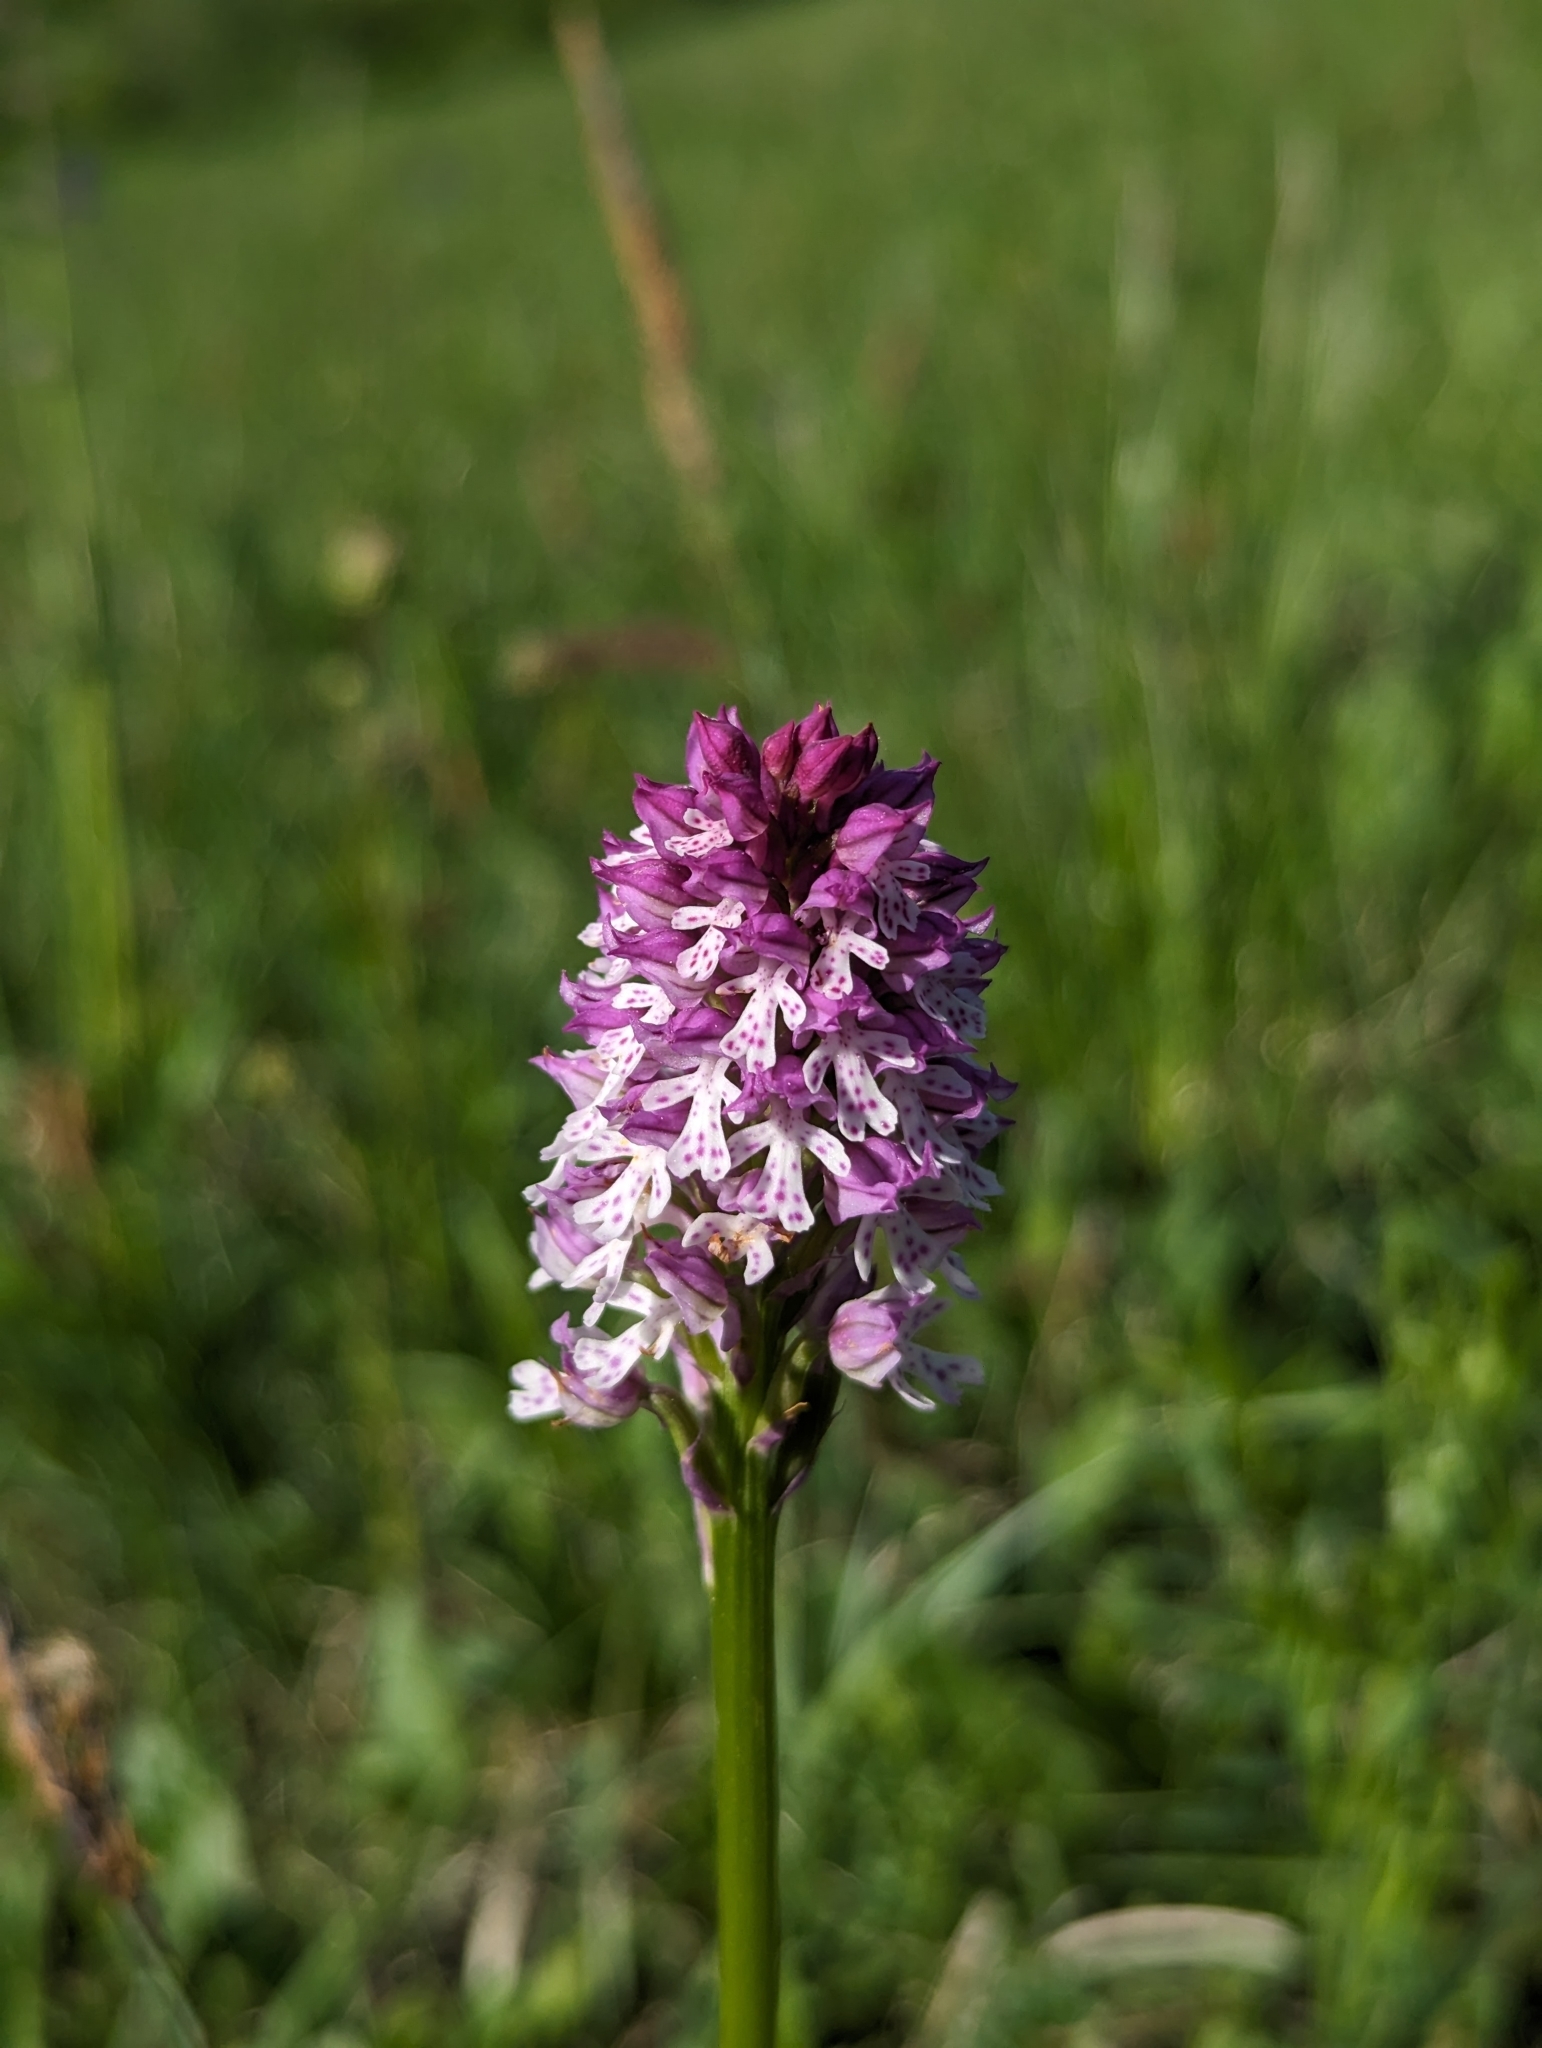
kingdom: Plantae
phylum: Tracheophyta
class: Liliopsida
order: Asparagales
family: Orchidaceae
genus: Neotinea
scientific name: Neotinea dietrichiana
